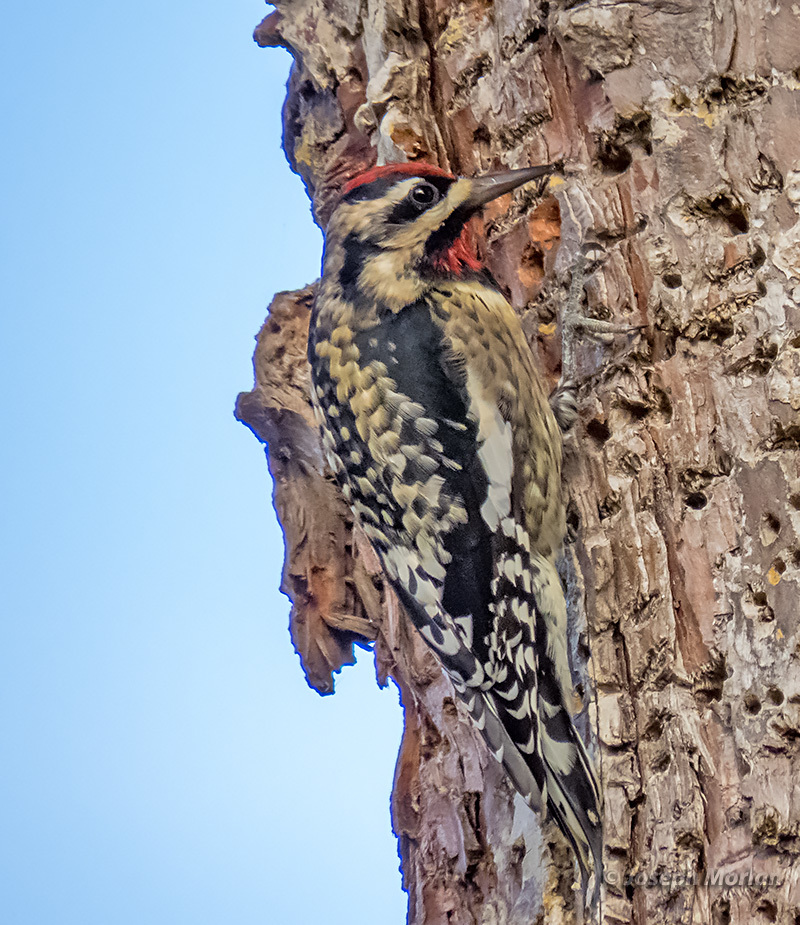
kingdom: Animalia
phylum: Chordata
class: Aves
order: Piciformes
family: Picidae
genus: Sphyrapicus
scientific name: Sphyrapicus varius
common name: Yellow-bellied sapsucker
